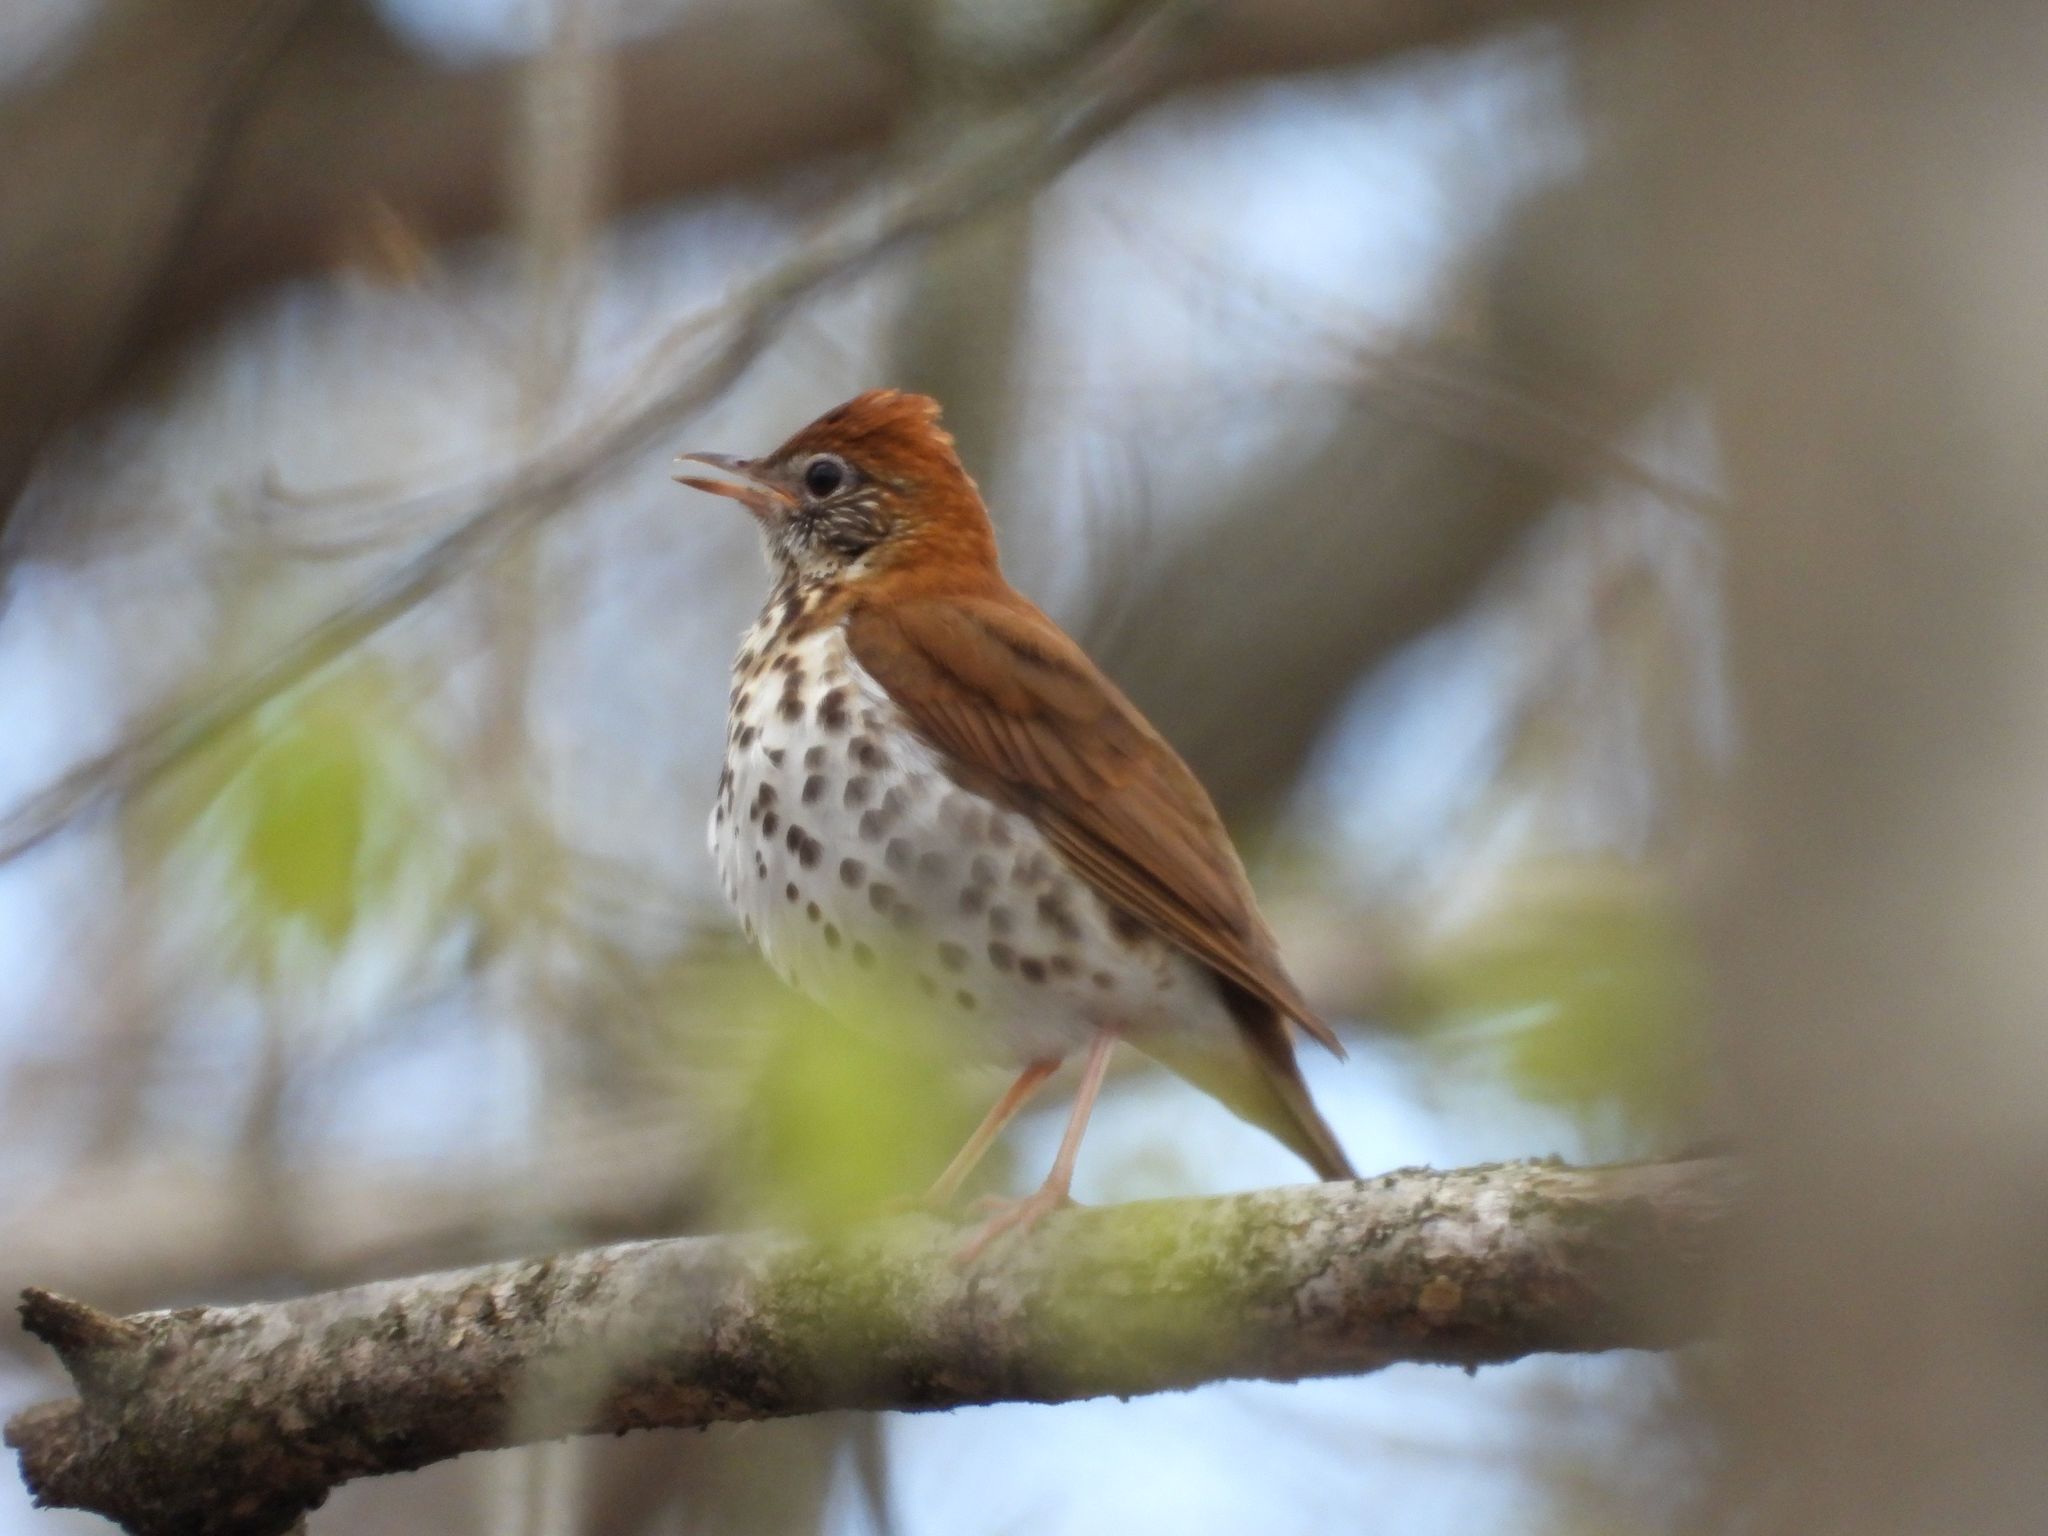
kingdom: Animalia
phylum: Chordata
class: Aves
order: Passeriformes
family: Turdidae
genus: Hylocichla
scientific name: Hylocichla mustelina
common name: Wood thrush
